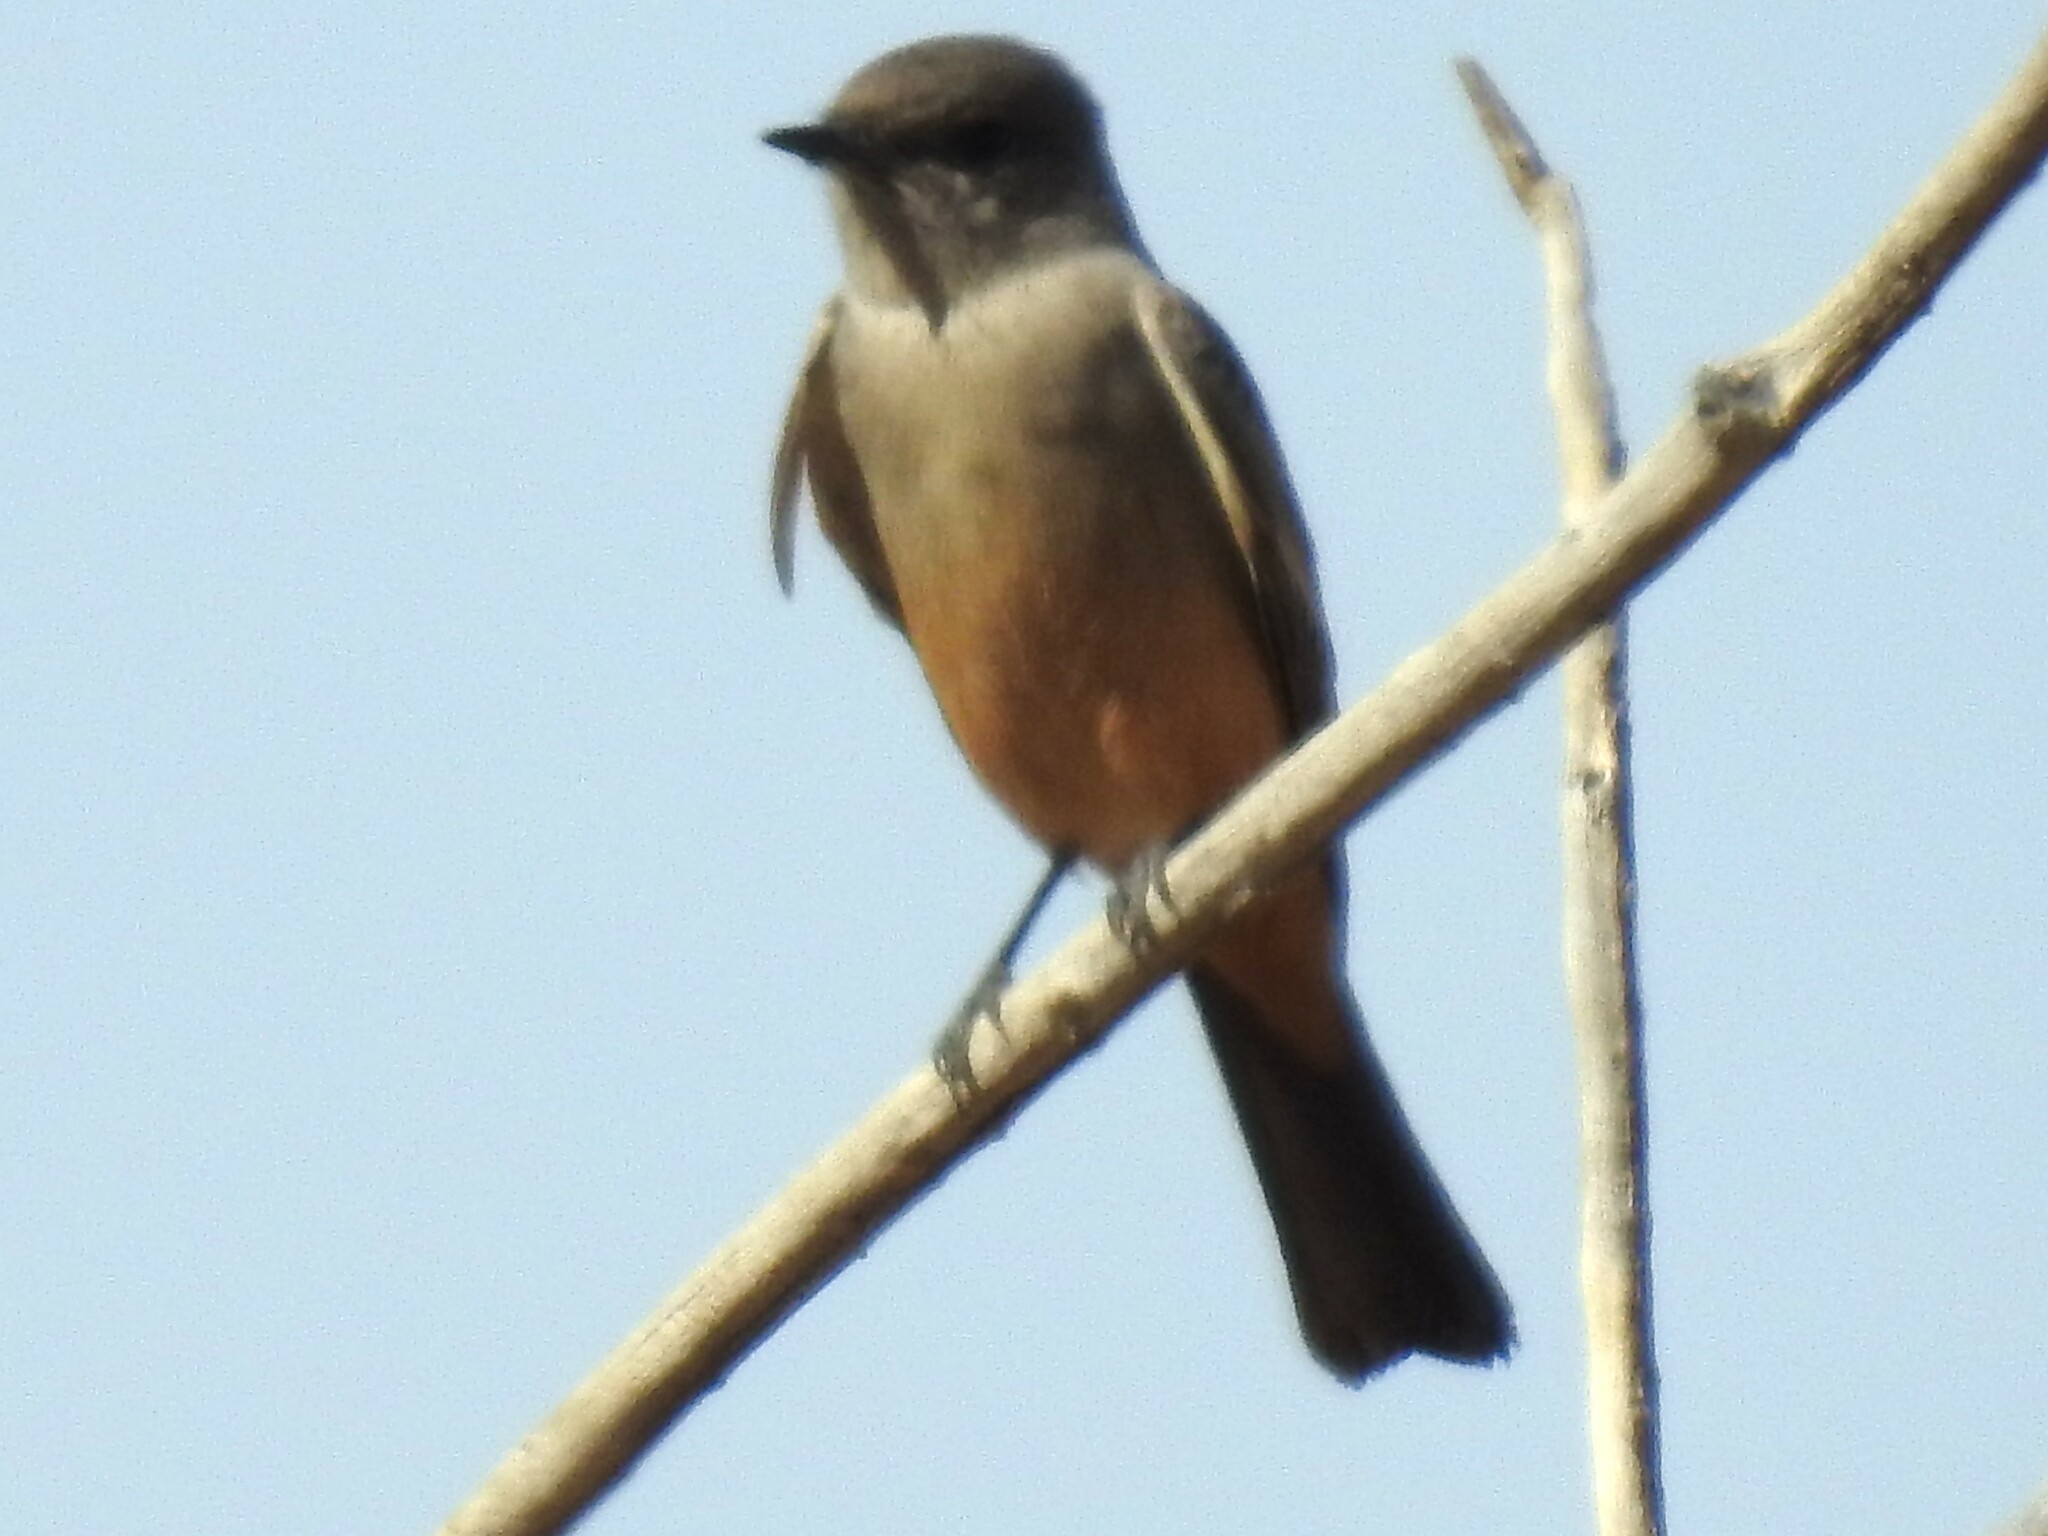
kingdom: Animalia
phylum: Chordata
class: Aves
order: Passeriformes
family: Tyrannidae
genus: Sayornis
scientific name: Sayornis saya
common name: Say's phoebe
